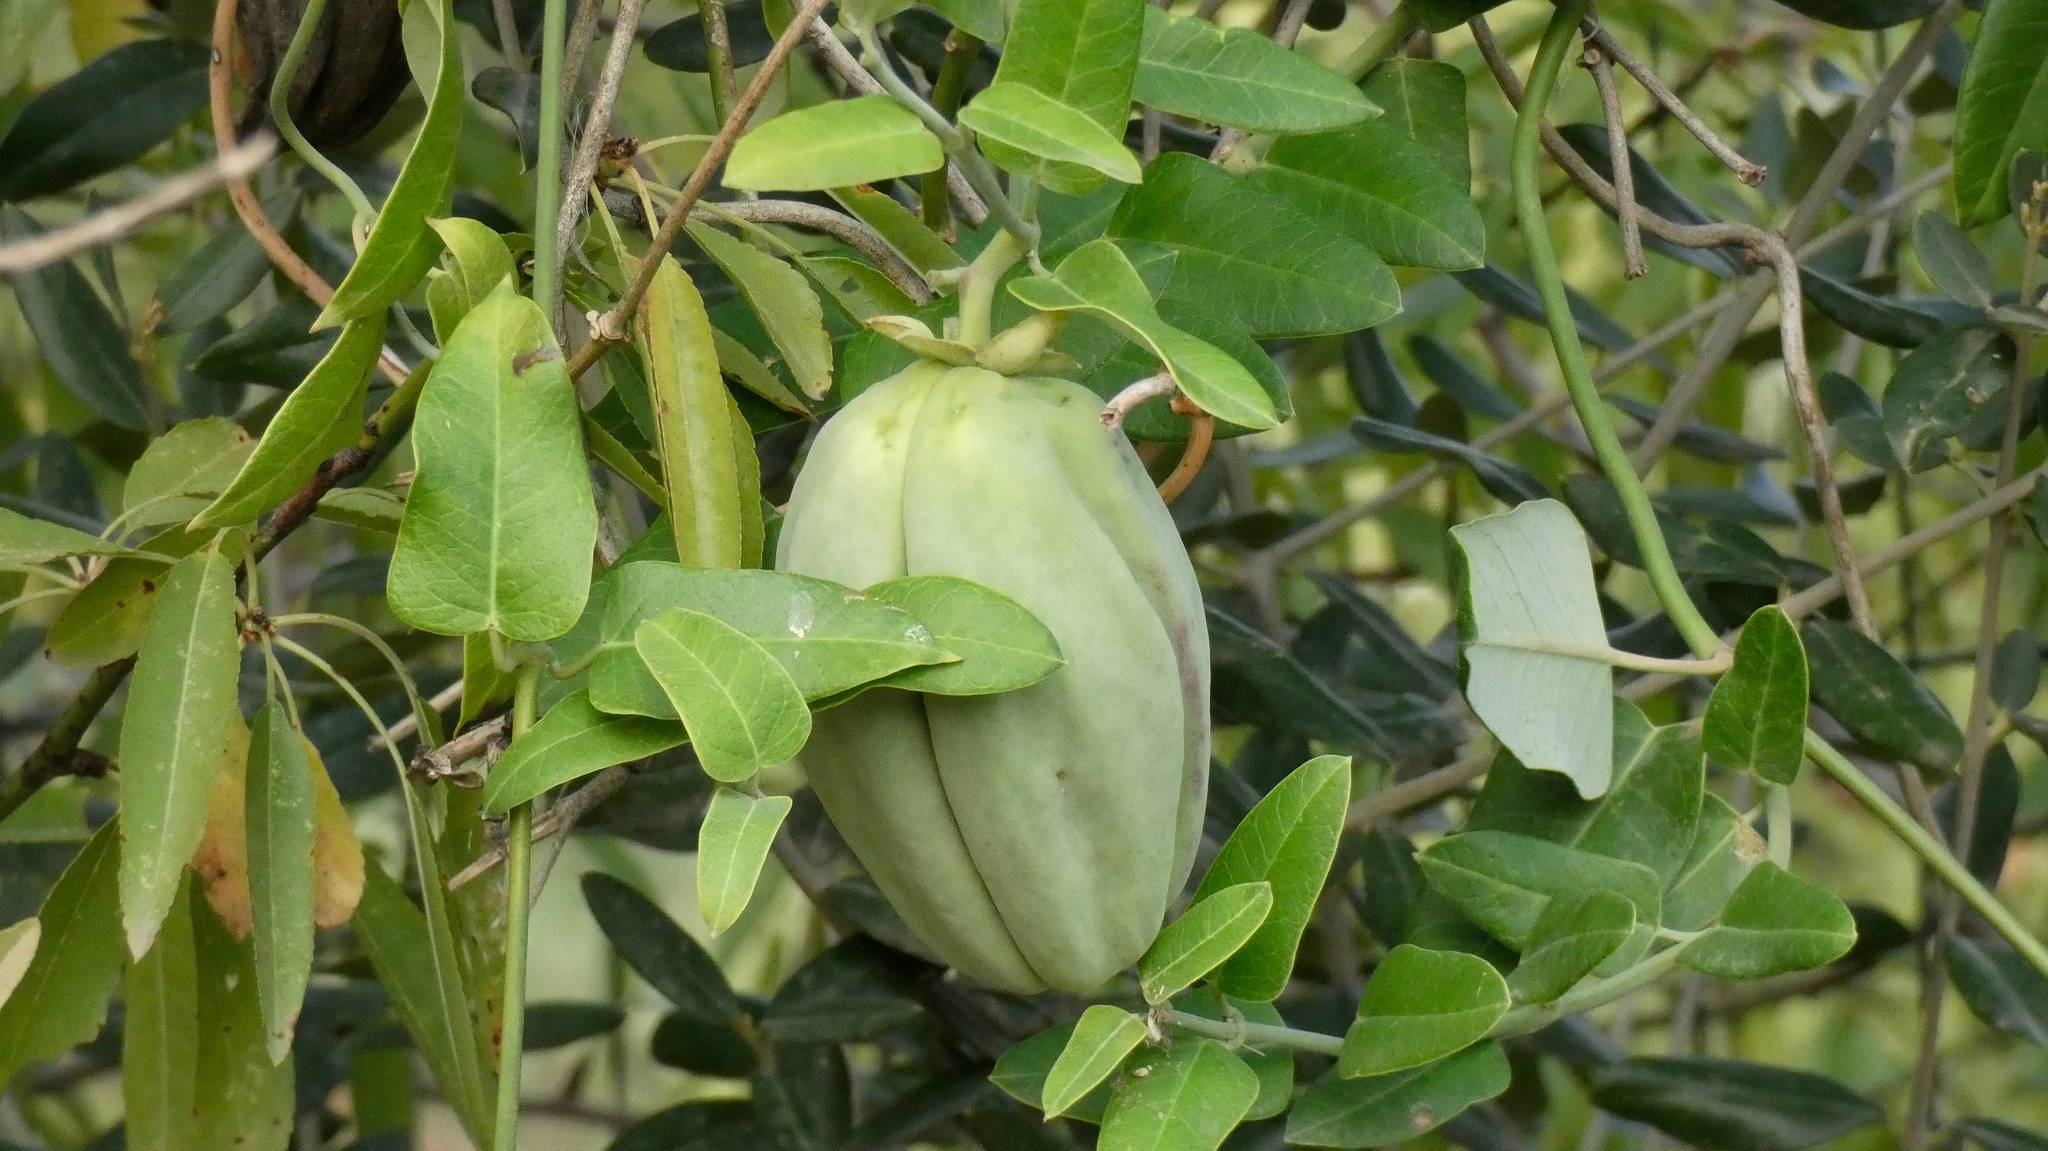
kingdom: Plantae
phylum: Tracheophyta
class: Magnoliopsida
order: Gentianales
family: Apocynaceae
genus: Araujia
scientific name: Araujia sericifera
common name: White bladderflower
